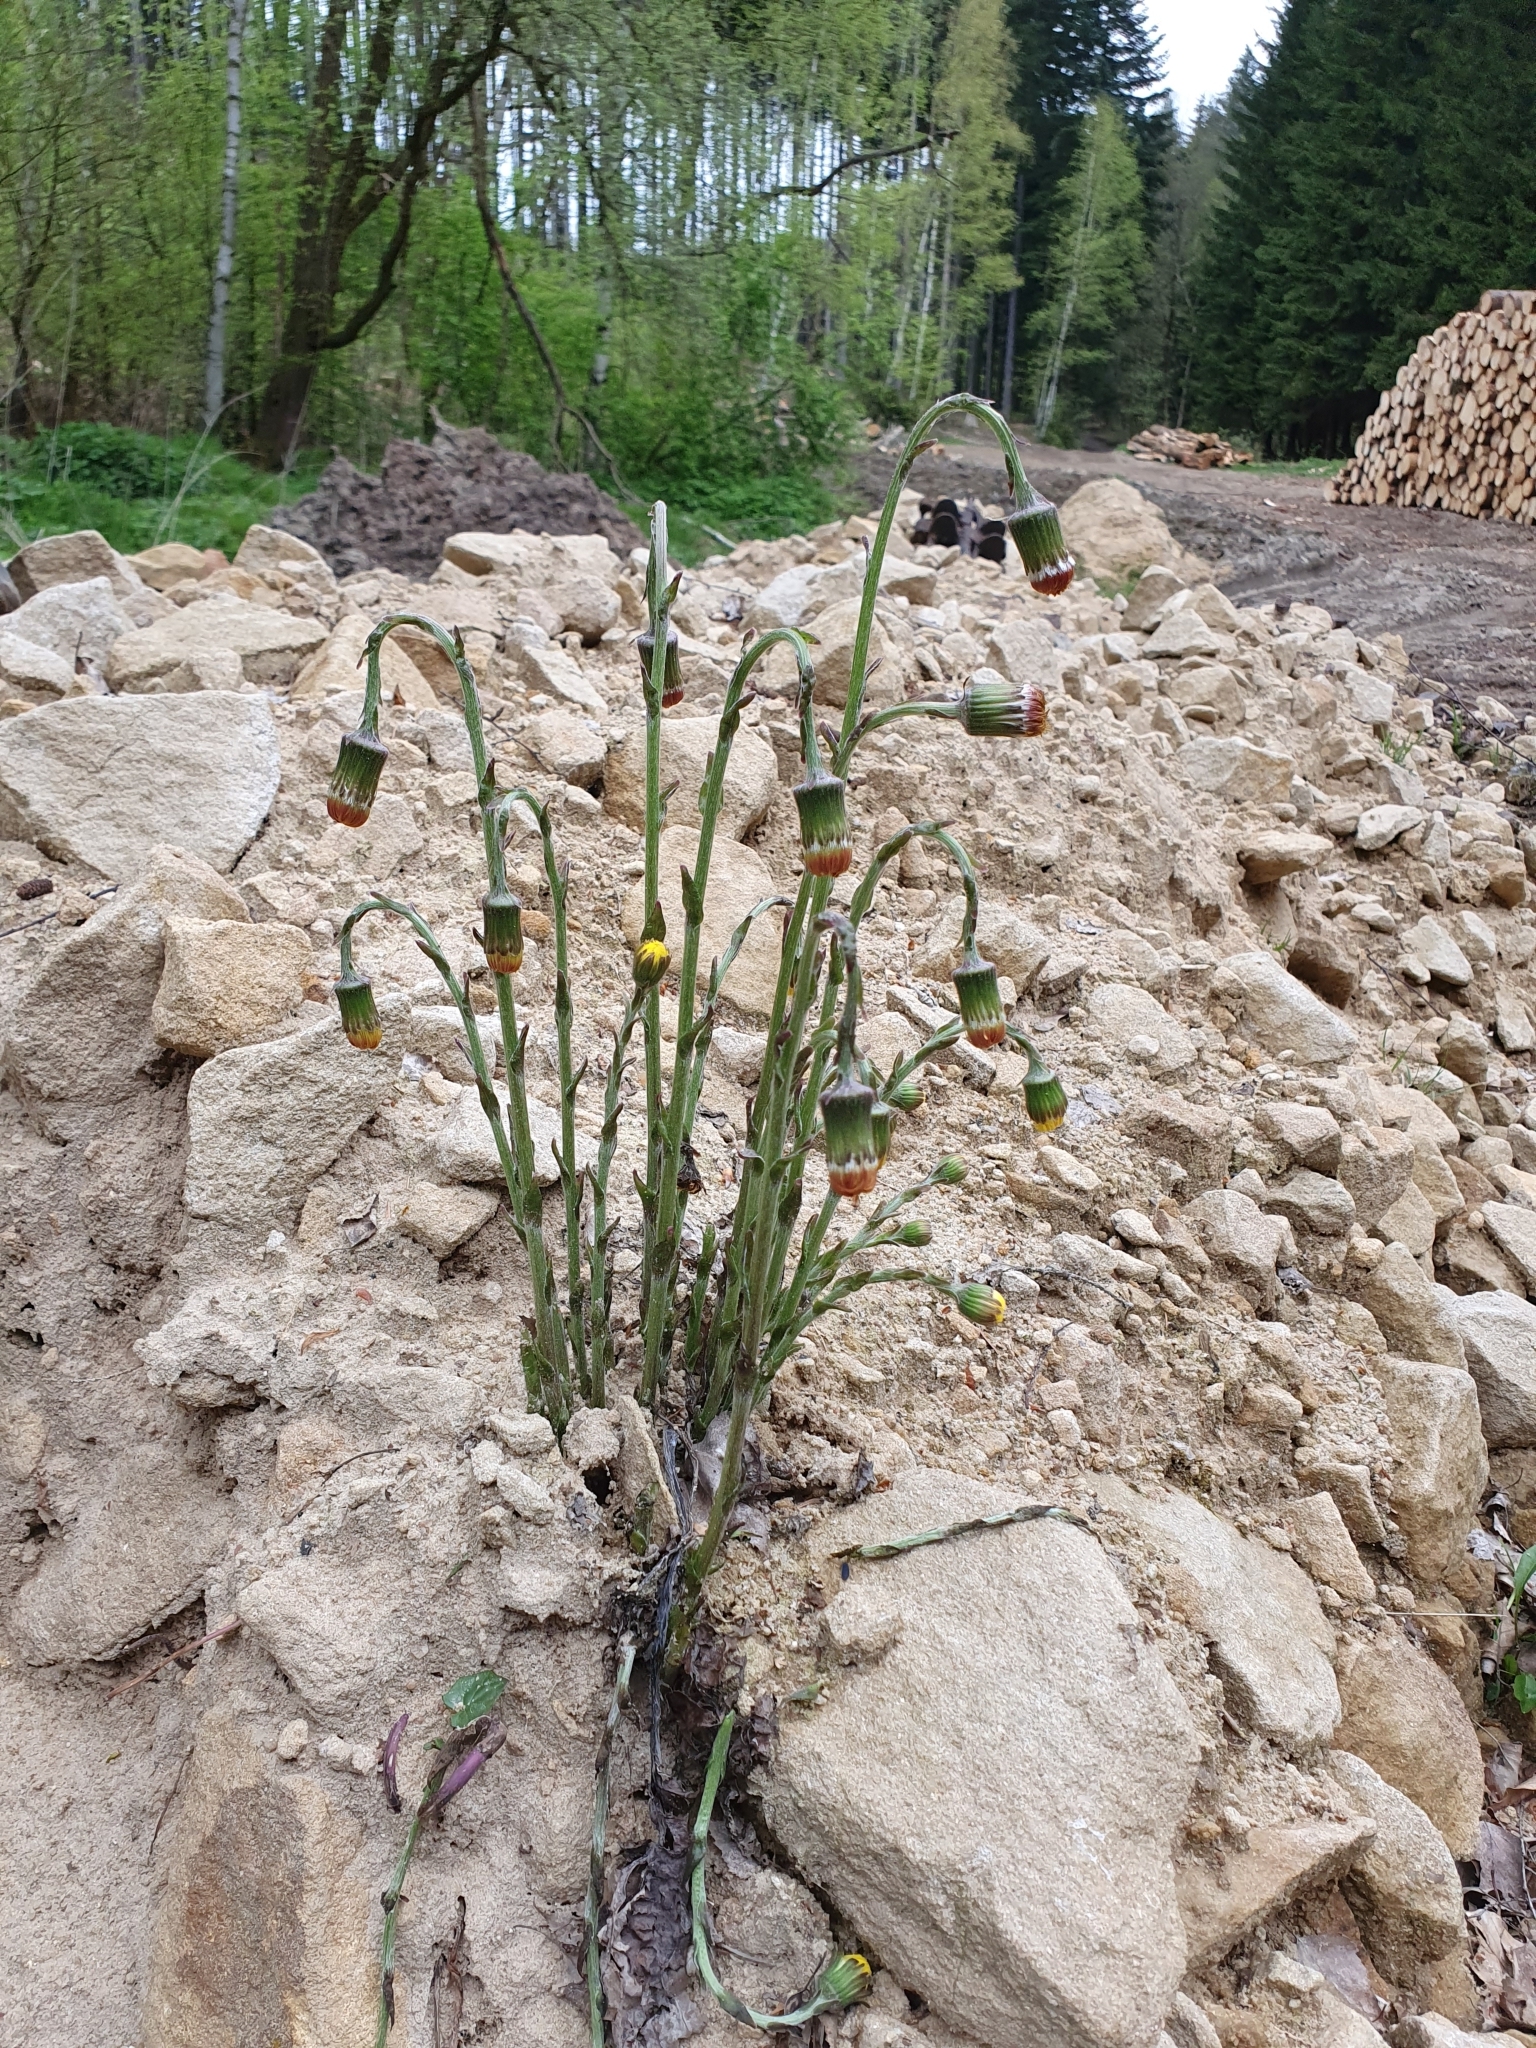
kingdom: Plantae
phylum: Tracheophyta
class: Magnoliopsida
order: Asterales
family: Asteraceae
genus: Tussilago
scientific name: Tussilago farfara
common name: Coltsfoot
